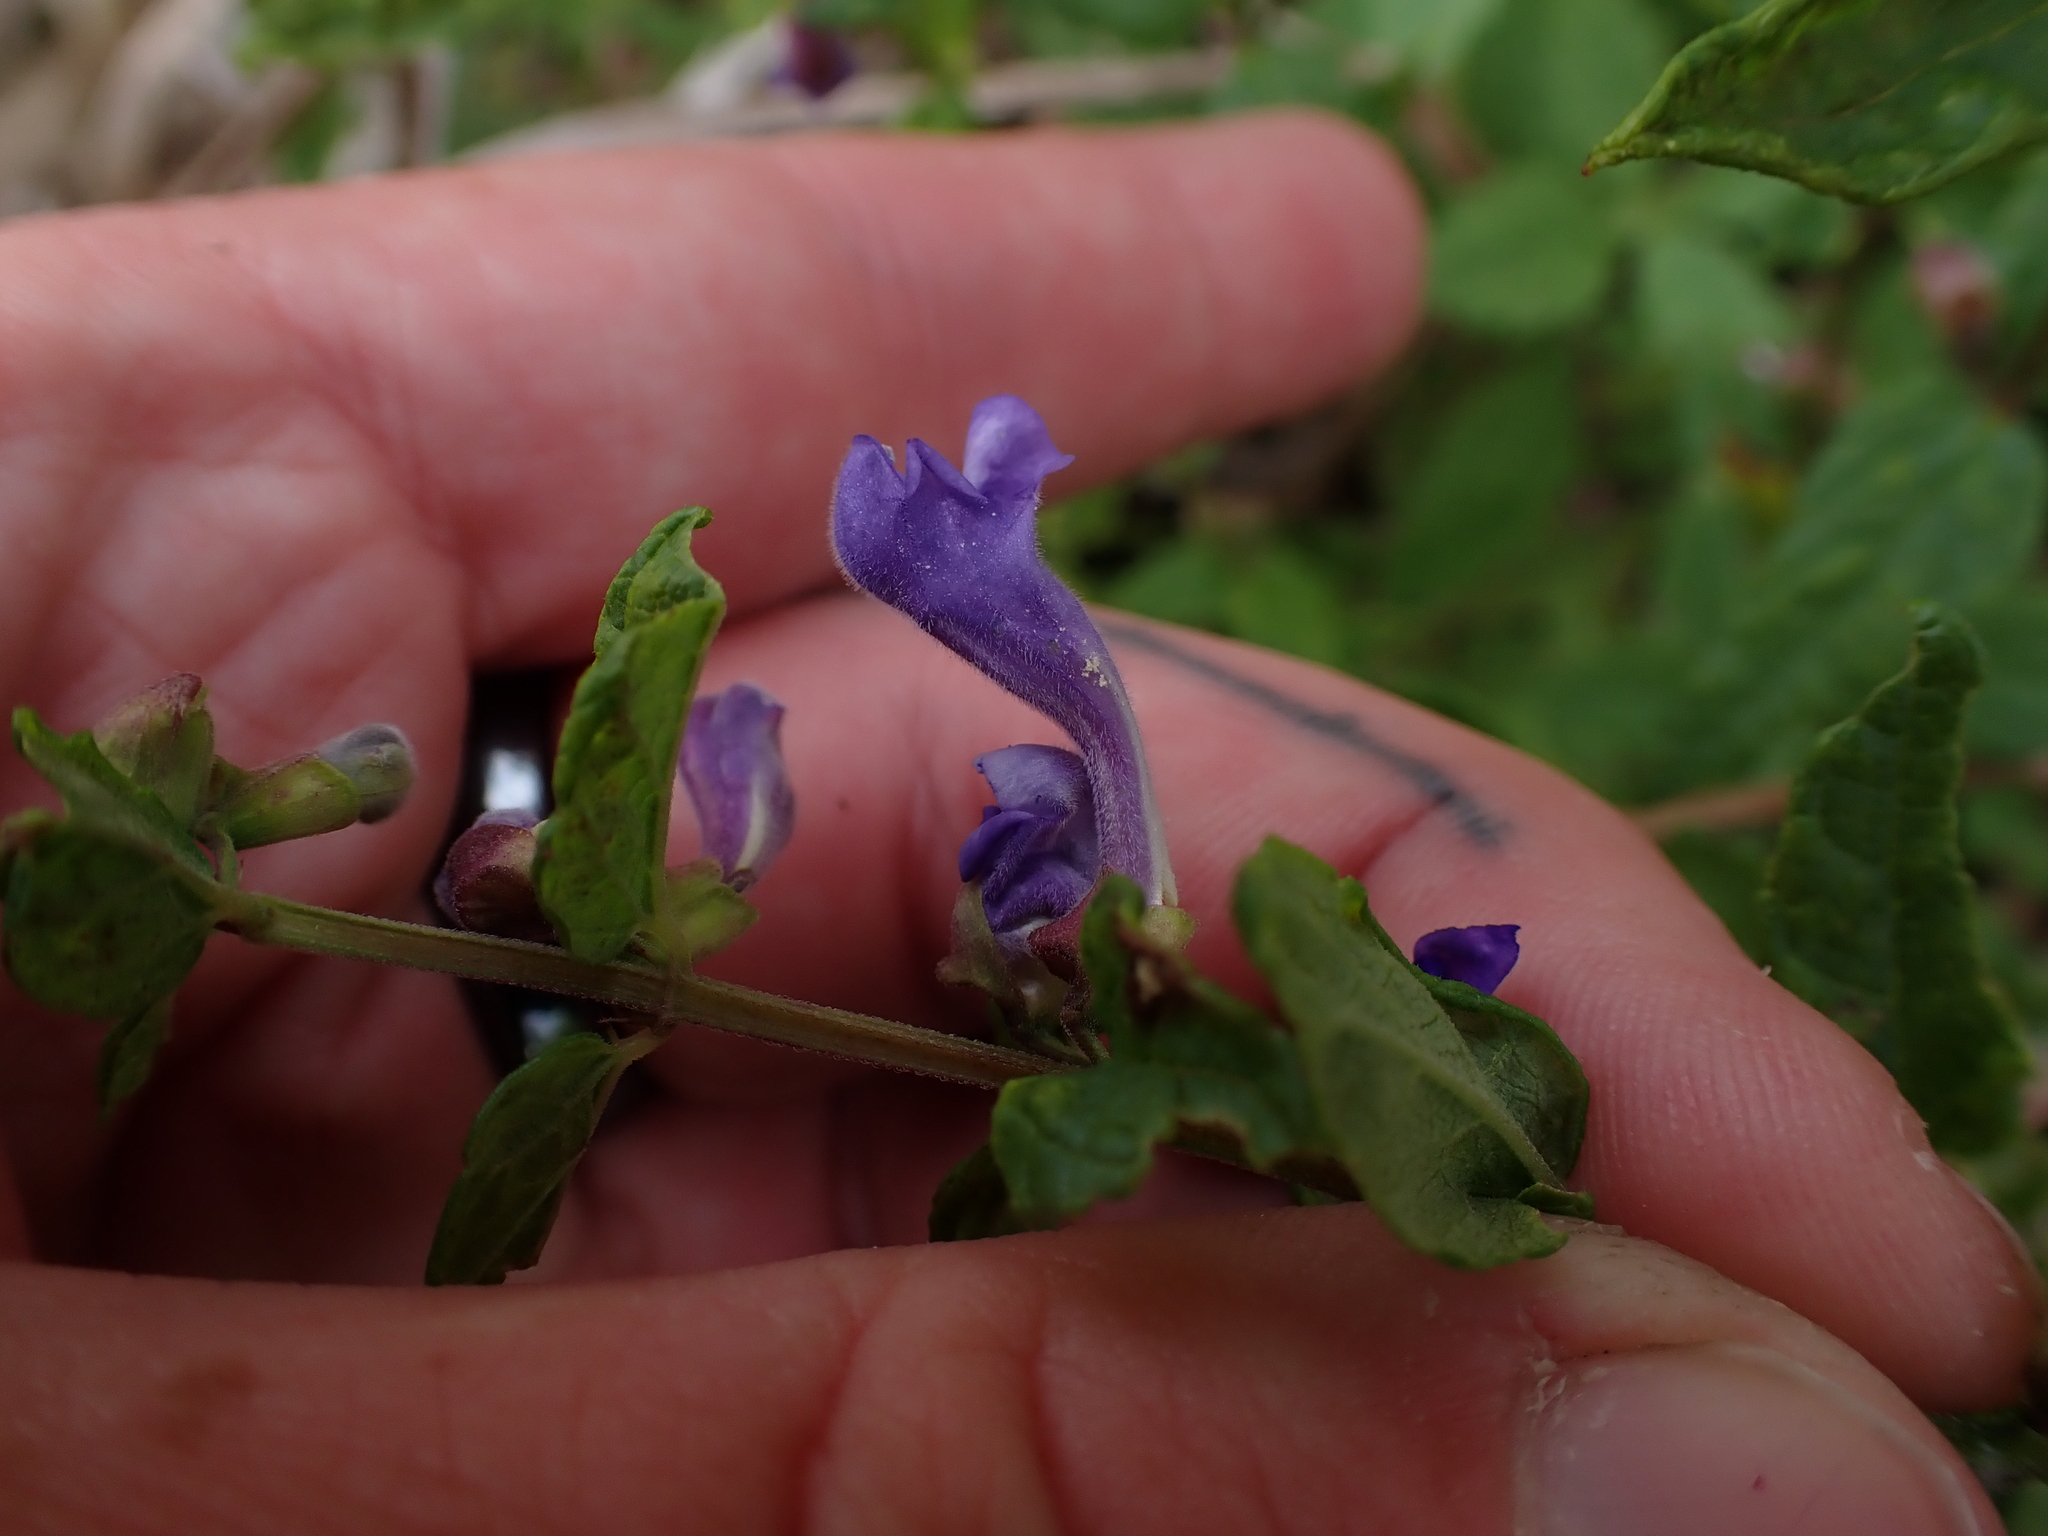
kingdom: Plantae
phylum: Tracheophyta
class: Magnoliopsida
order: Lamiales
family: Lamiaceae
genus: Scutellaria
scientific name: Scutellaria galericulata
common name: Skullcap
